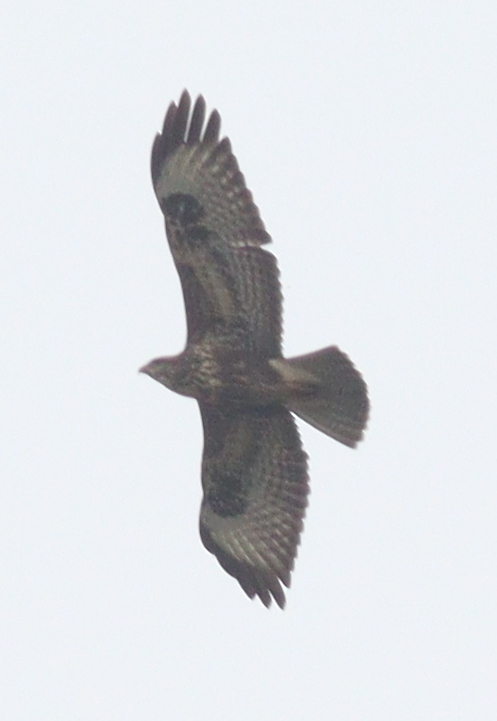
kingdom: Animalia
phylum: Chordata
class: Aves
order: Accipitriformes
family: Accipitridae
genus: Buteo
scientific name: Buteo buteo
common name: Common buzzard
